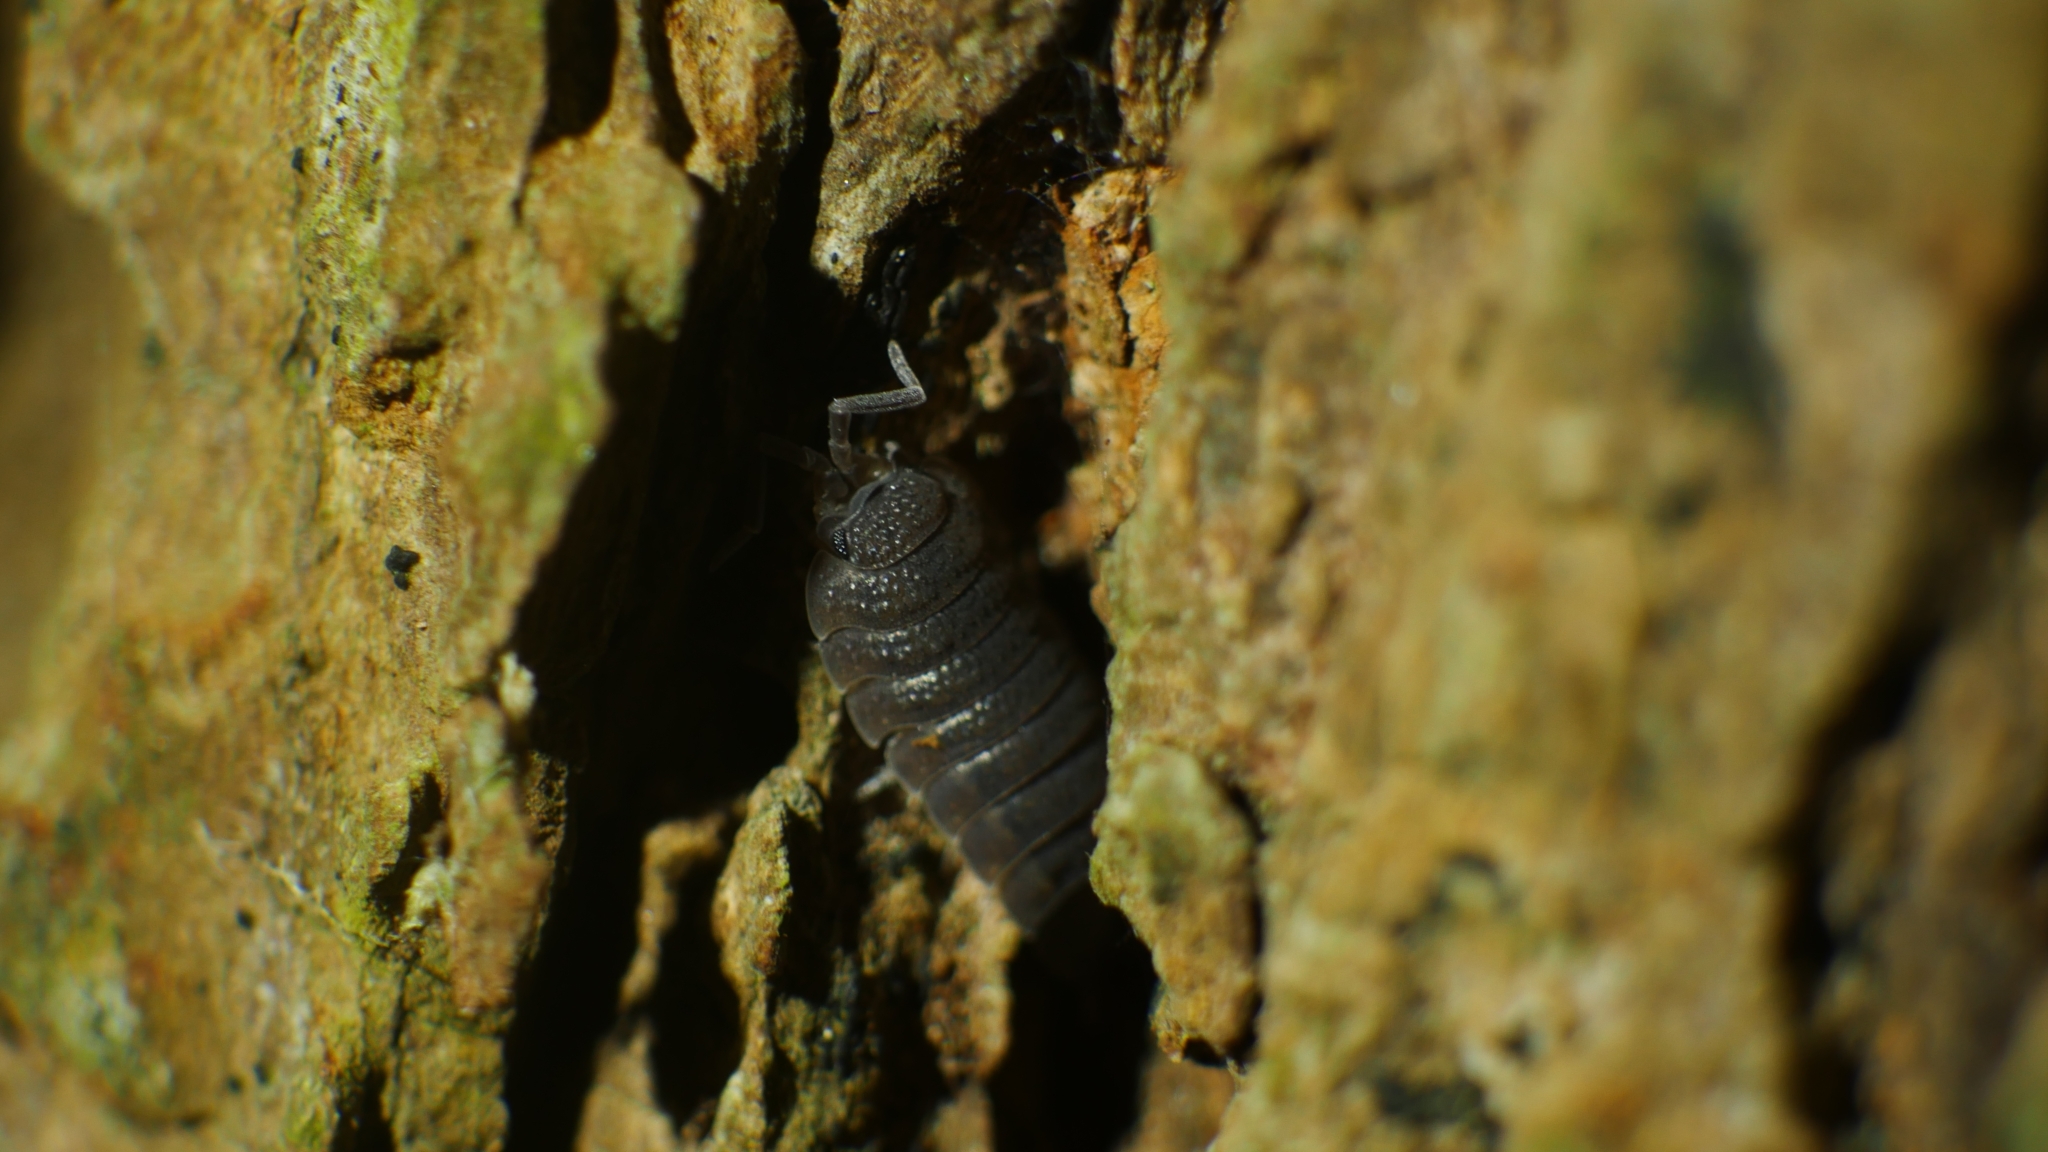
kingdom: Animalia
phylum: Arthropoda
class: Malacostraca
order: Isopoda
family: Porcellionidae
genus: Porcellio
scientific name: Porcellio scaber
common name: Common rough woodlouse
